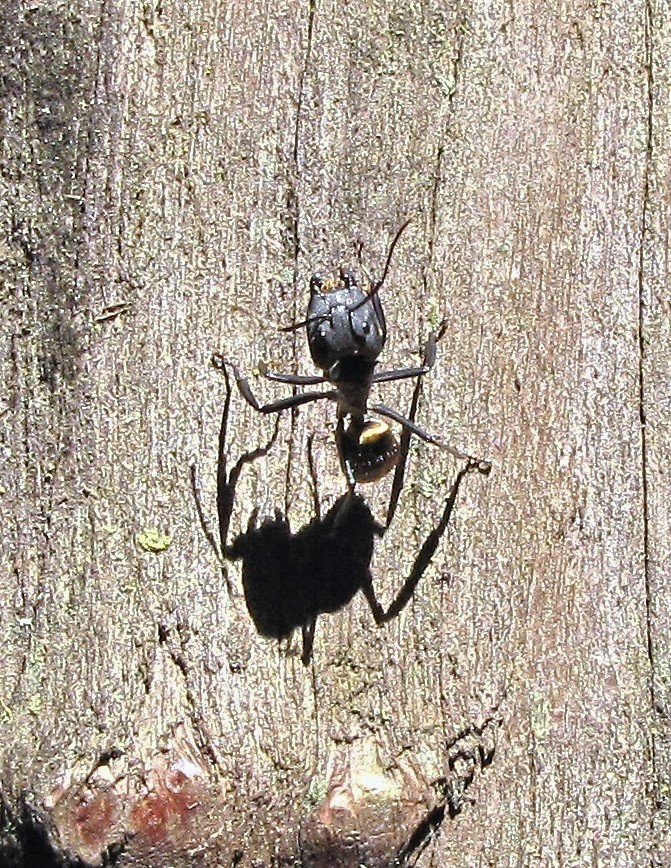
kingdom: Animalia
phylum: Arthropoda
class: Insecta
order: Hymenoptera
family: Formicidae
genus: Camponotus
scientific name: Camponotus sericeiventris
